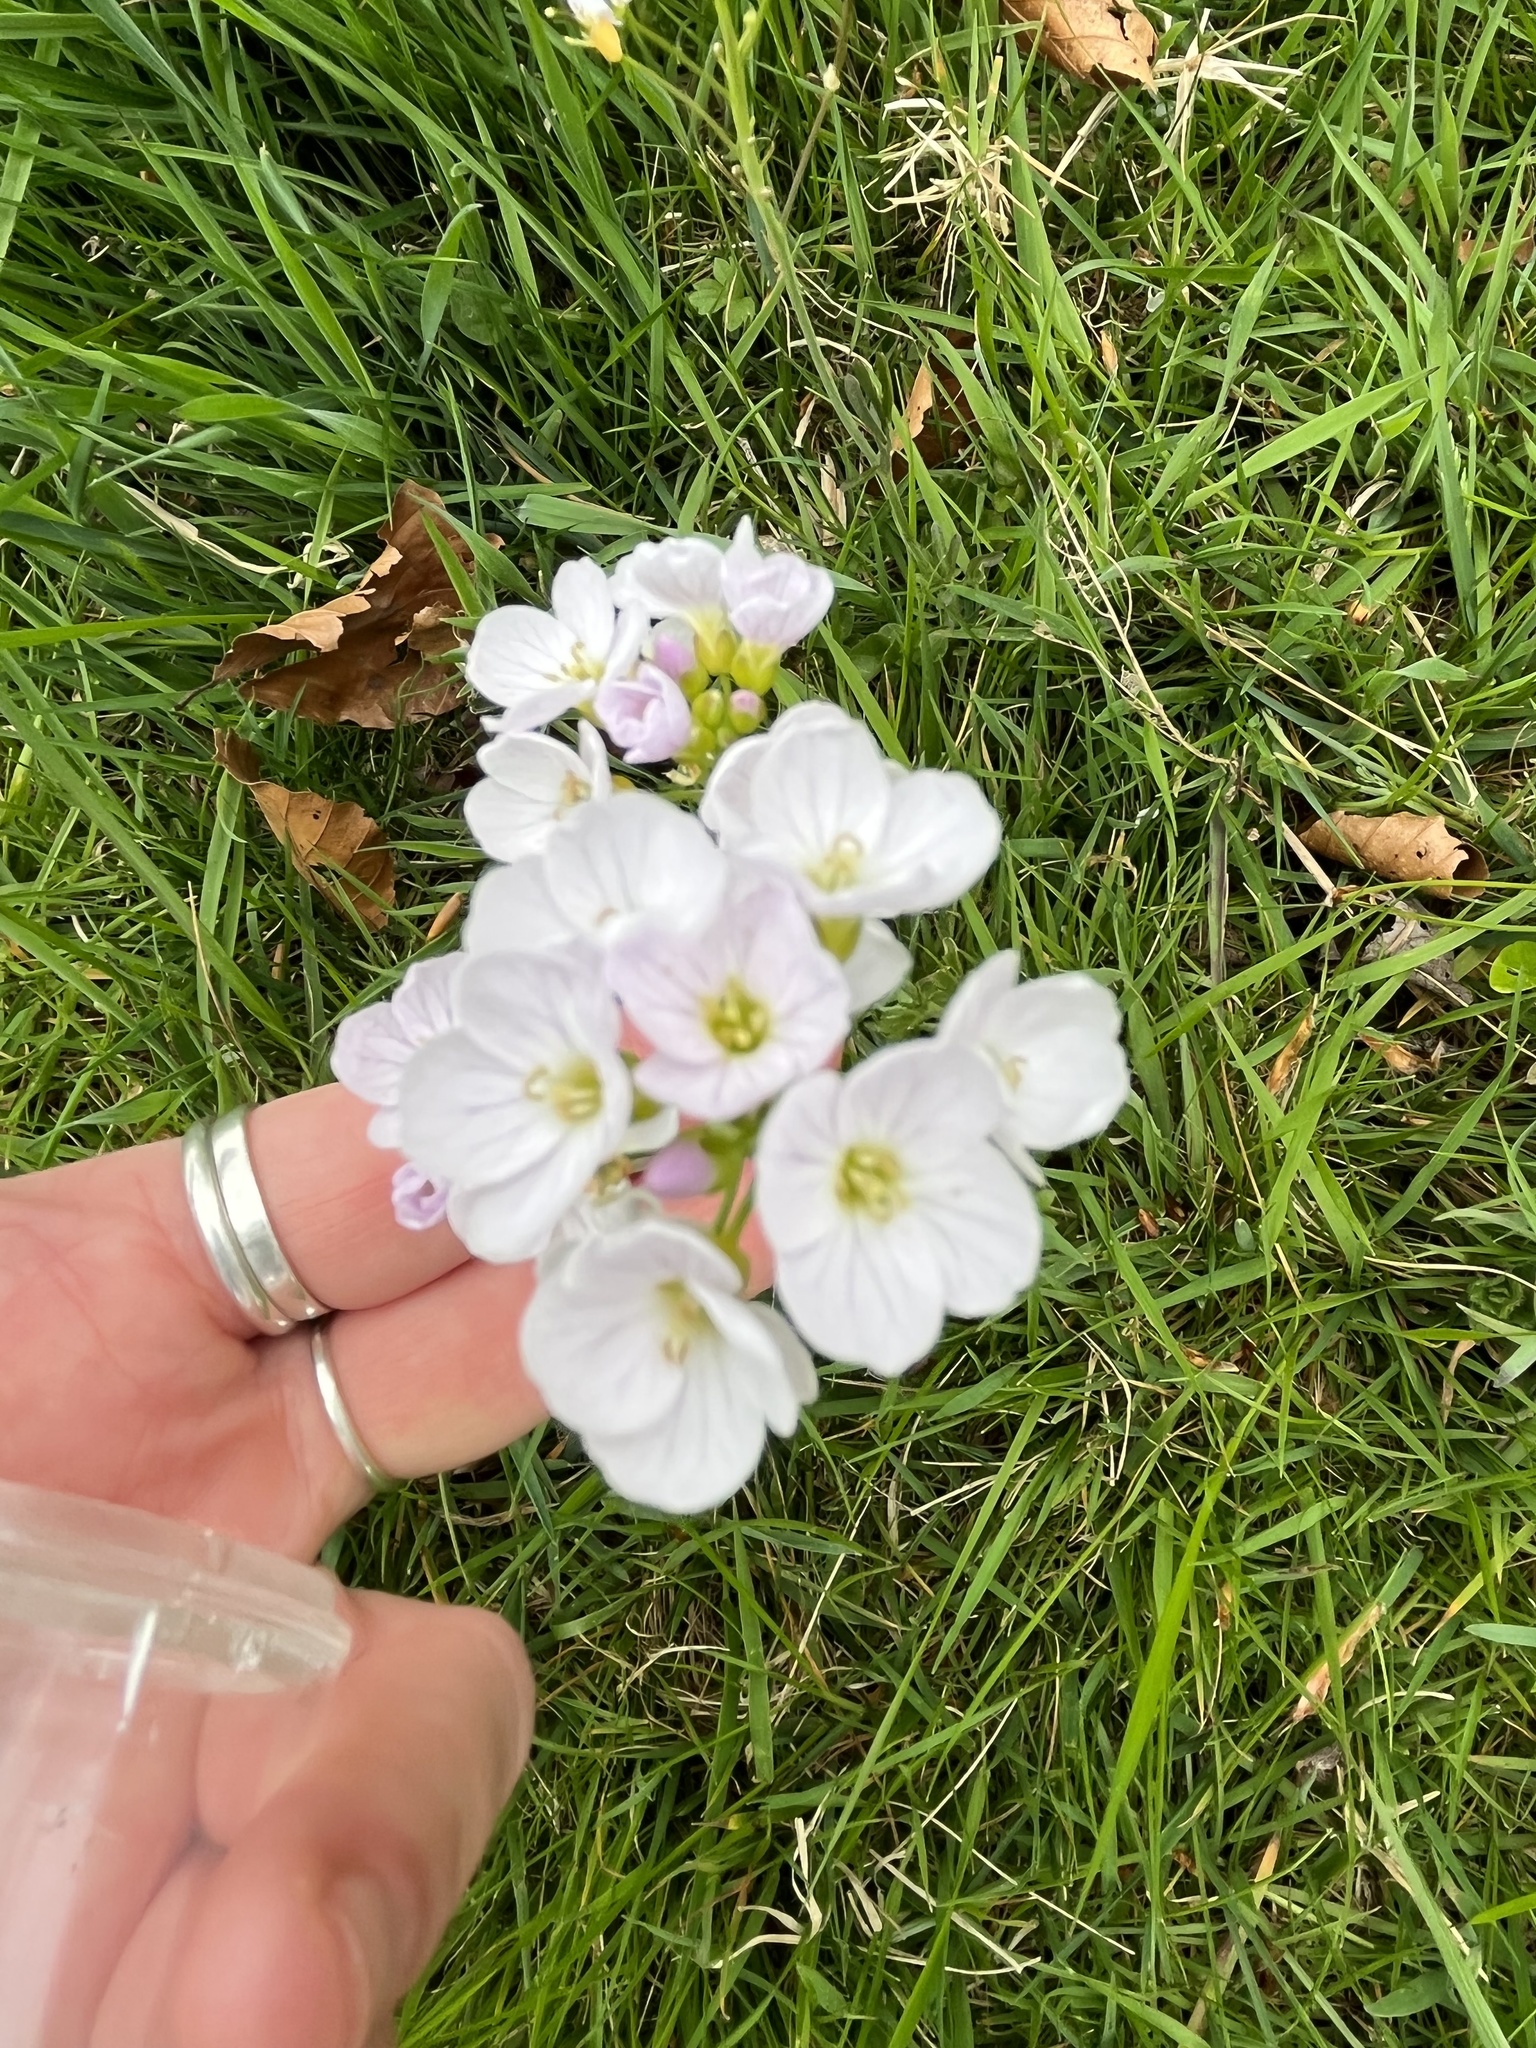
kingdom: Plantae
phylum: Tracheophyta
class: Magnoliopsida
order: Brassicales
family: Brassicaceae
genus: Cardamine
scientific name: Cardamine pratensis
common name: Cuckoo flower
